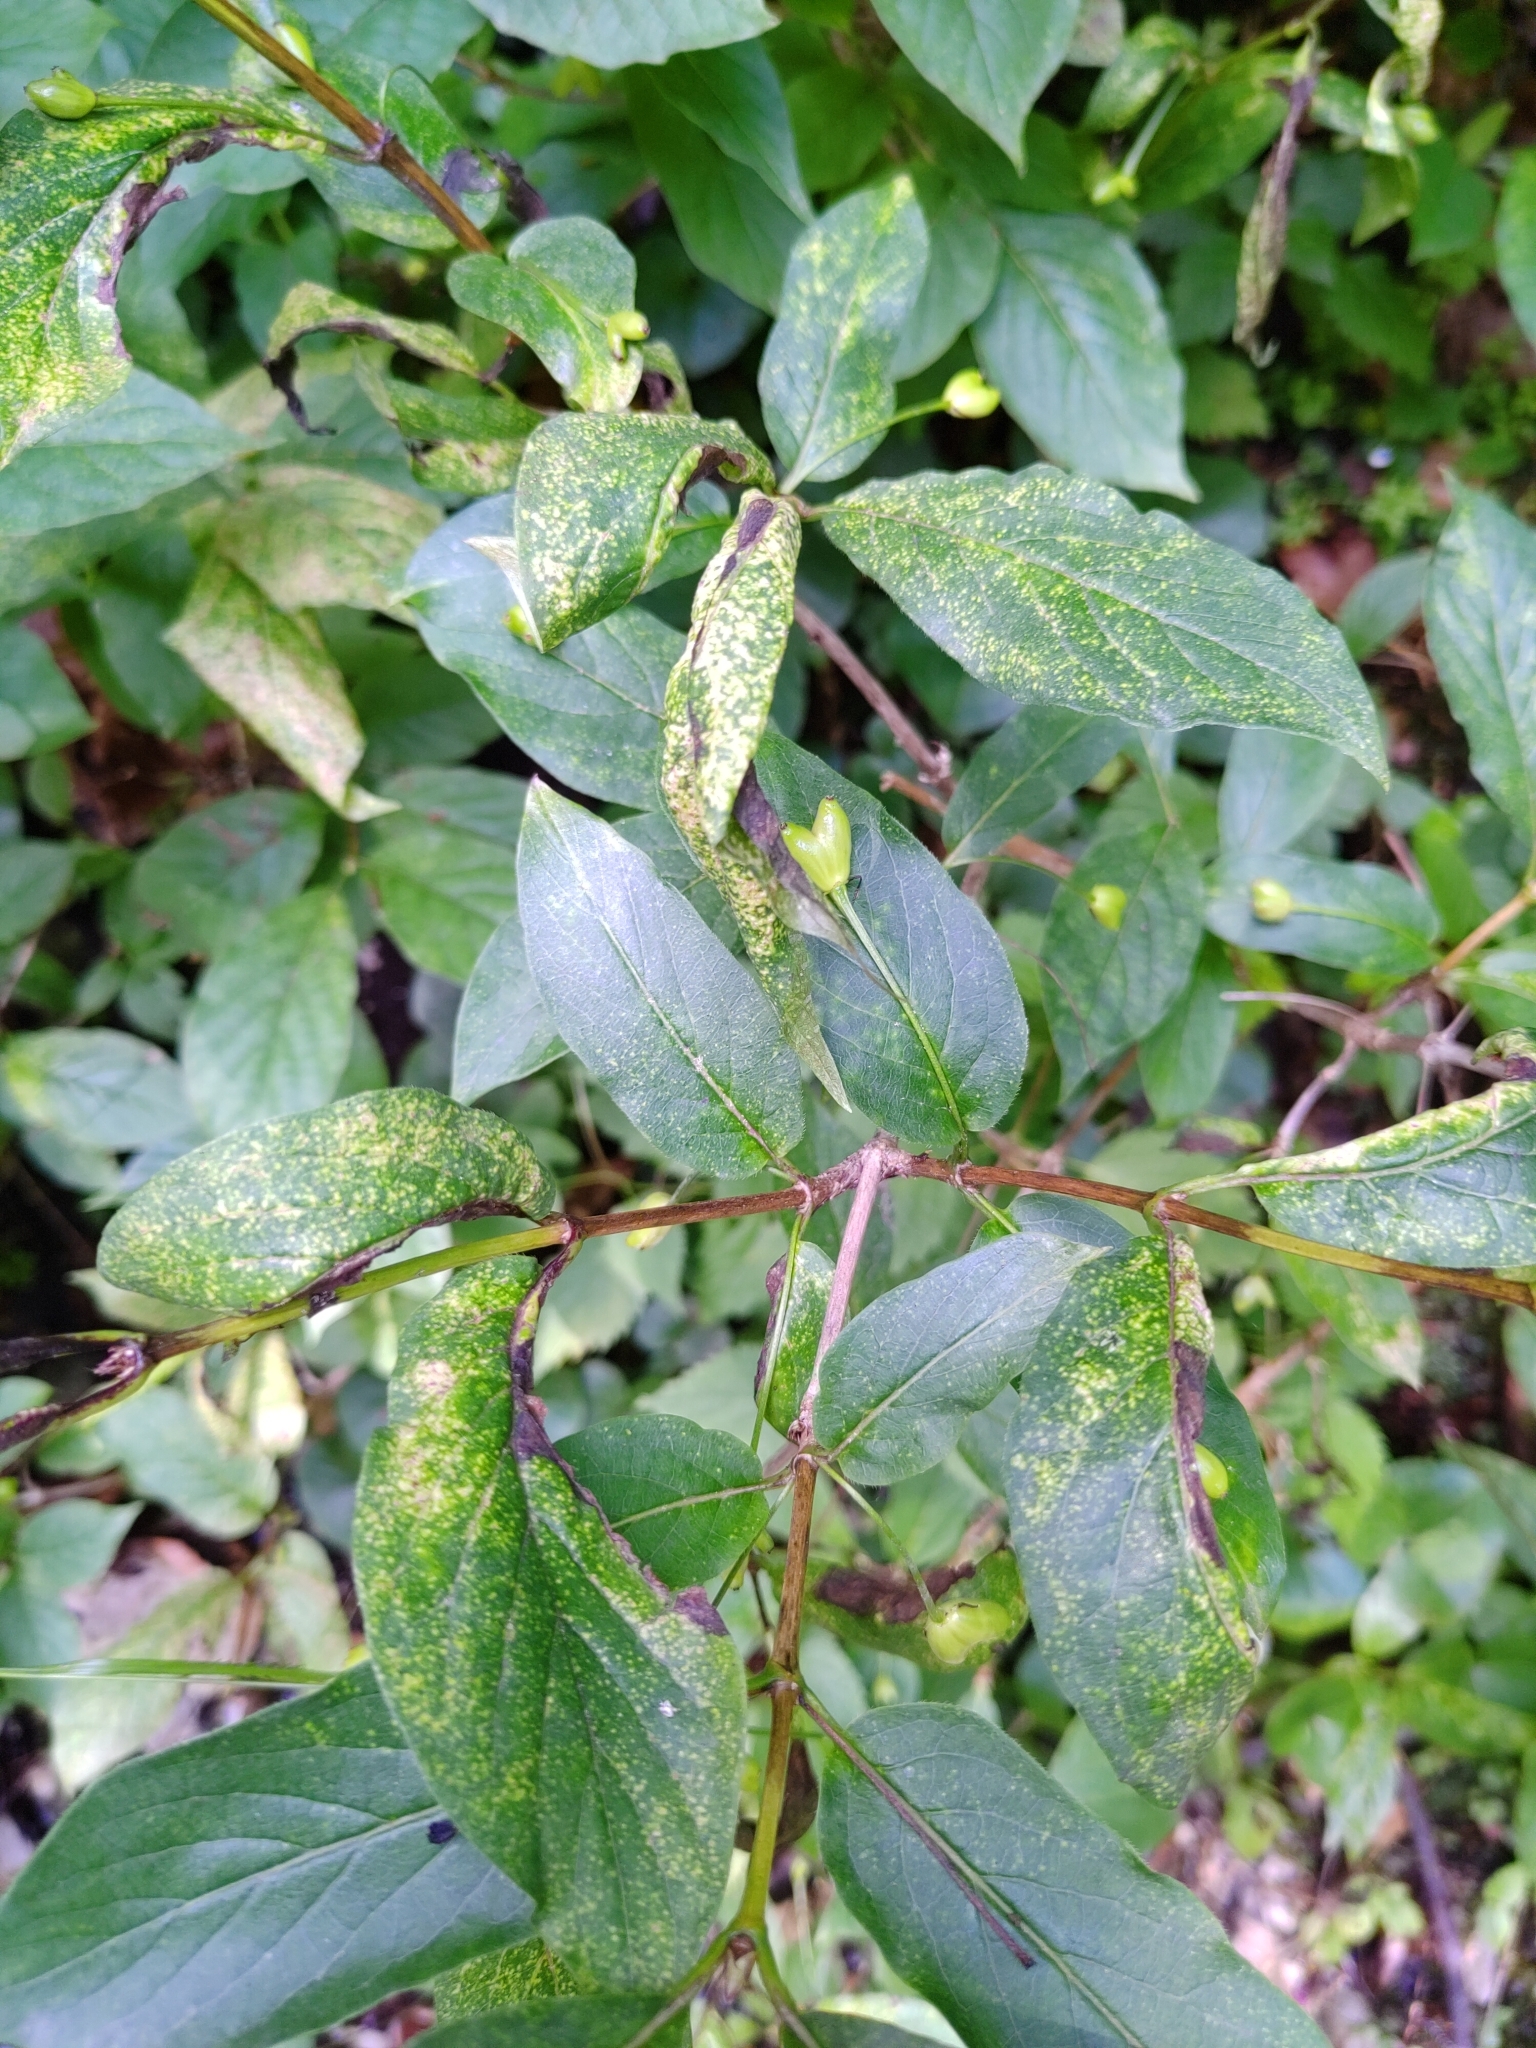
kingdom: Plantae
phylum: Tracheophyta
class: Magnoliopsida
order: Dipsacales
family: Caprifoliaceae
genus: Lonicera
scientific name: Lonicera alpigena
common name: Alpine honeysuckle
